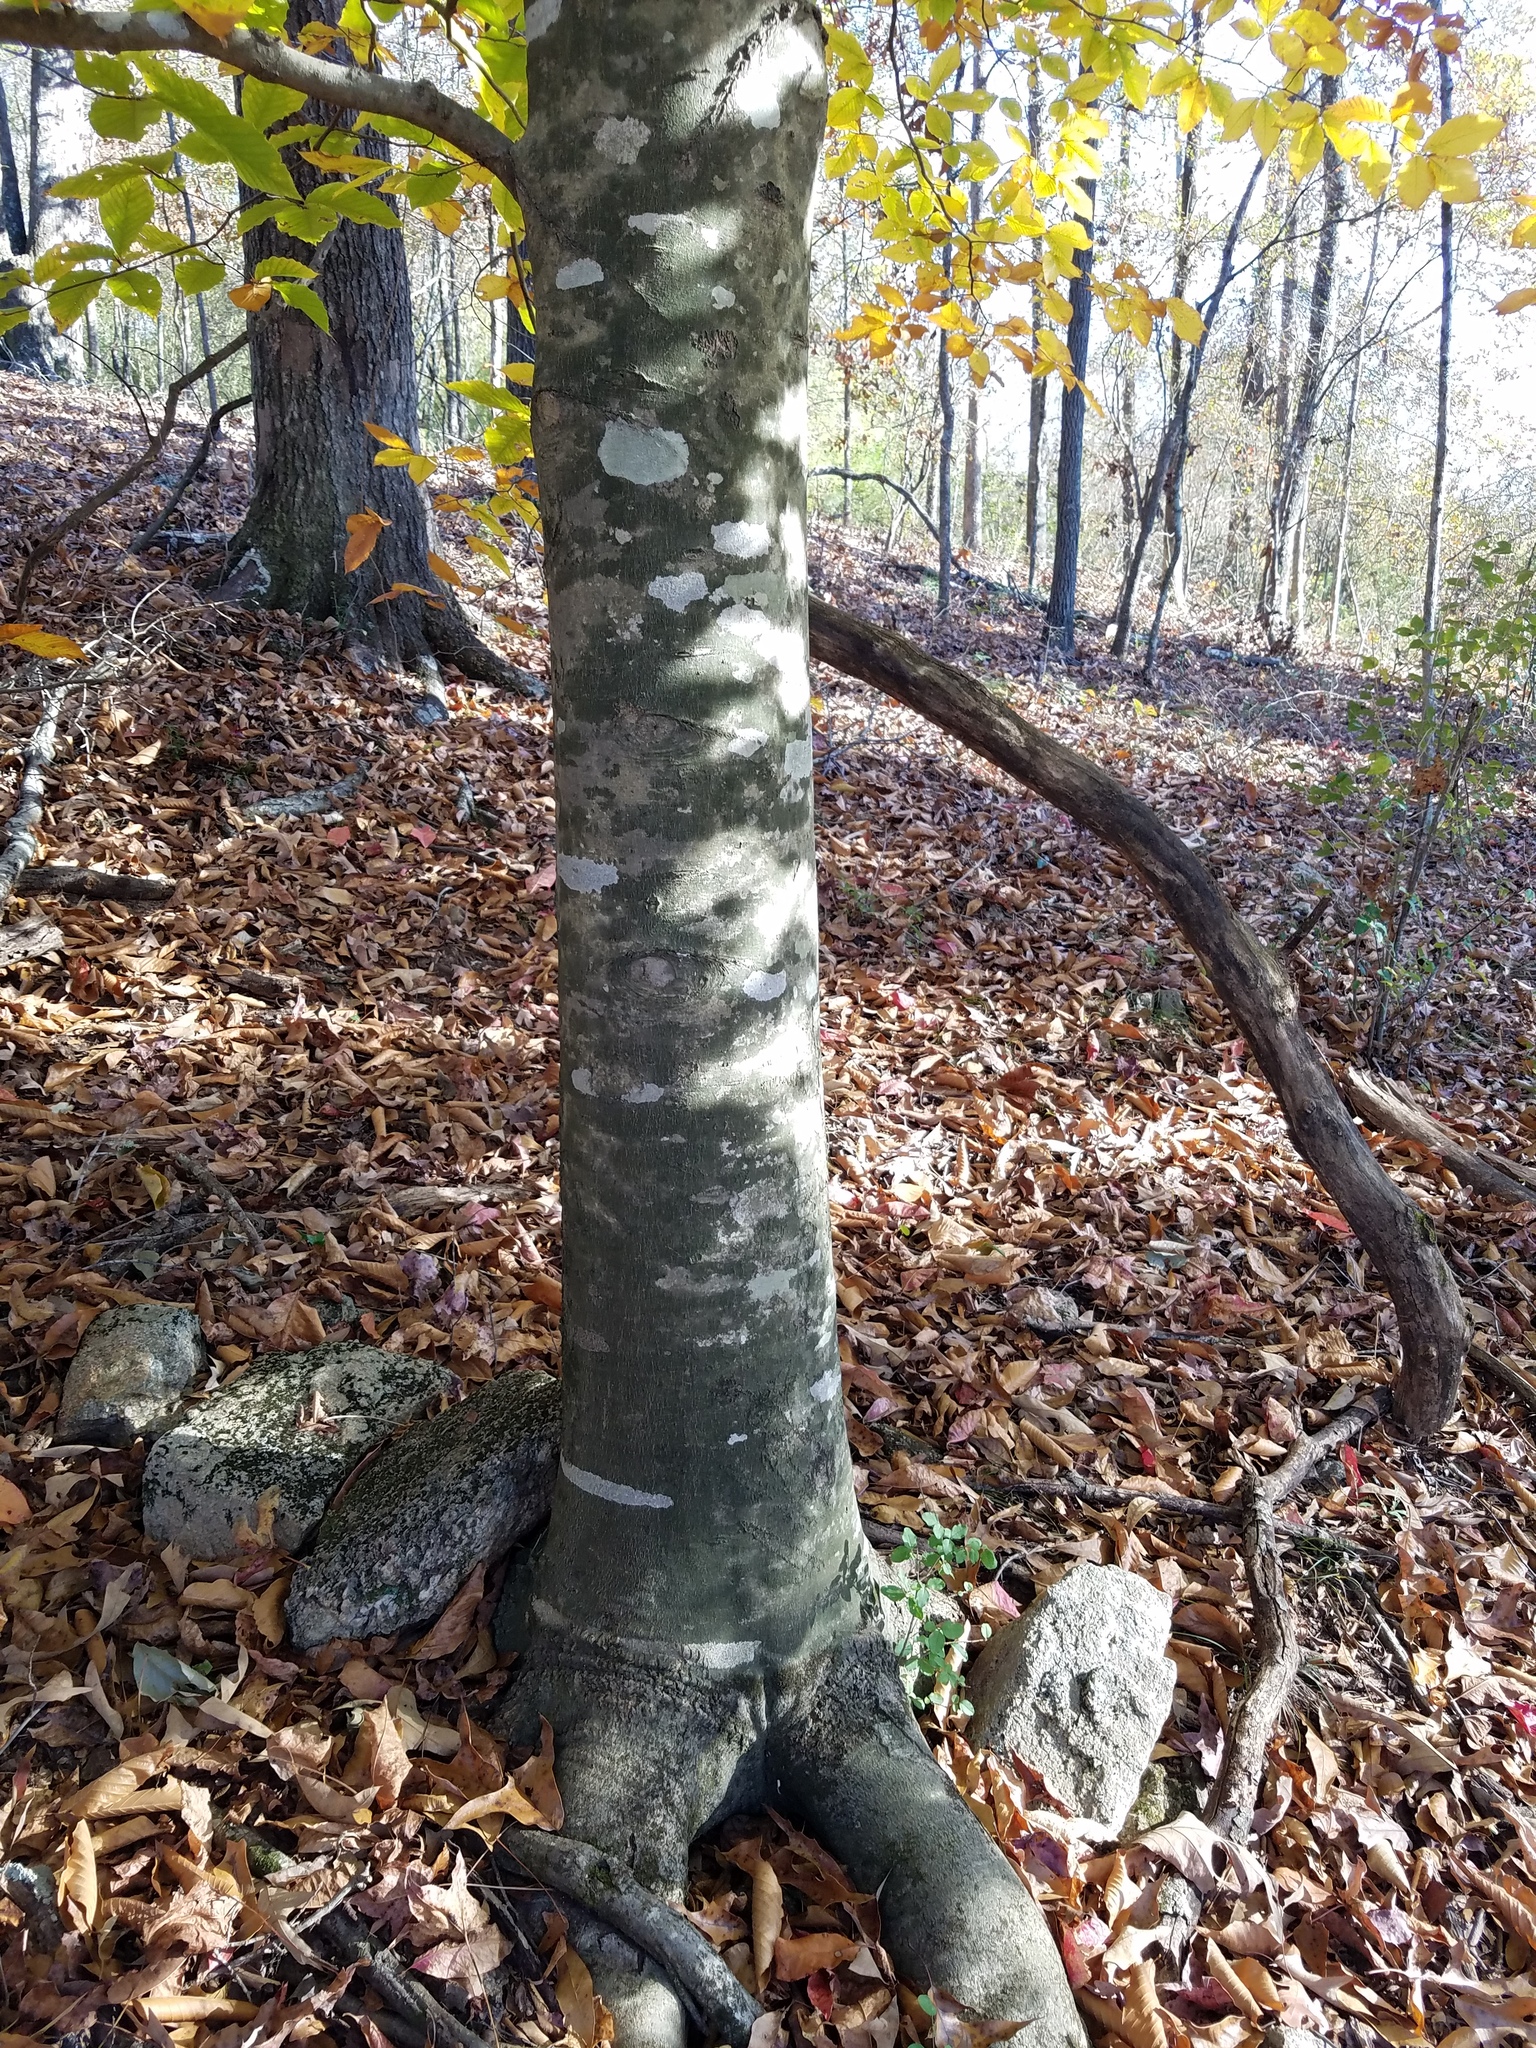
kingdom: Plantae
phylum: Tracheophyta
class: Magnoliopsida
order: Fagales
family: Fagaceae
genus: Fagus
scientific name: Fagus grandifolia
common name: American beech
